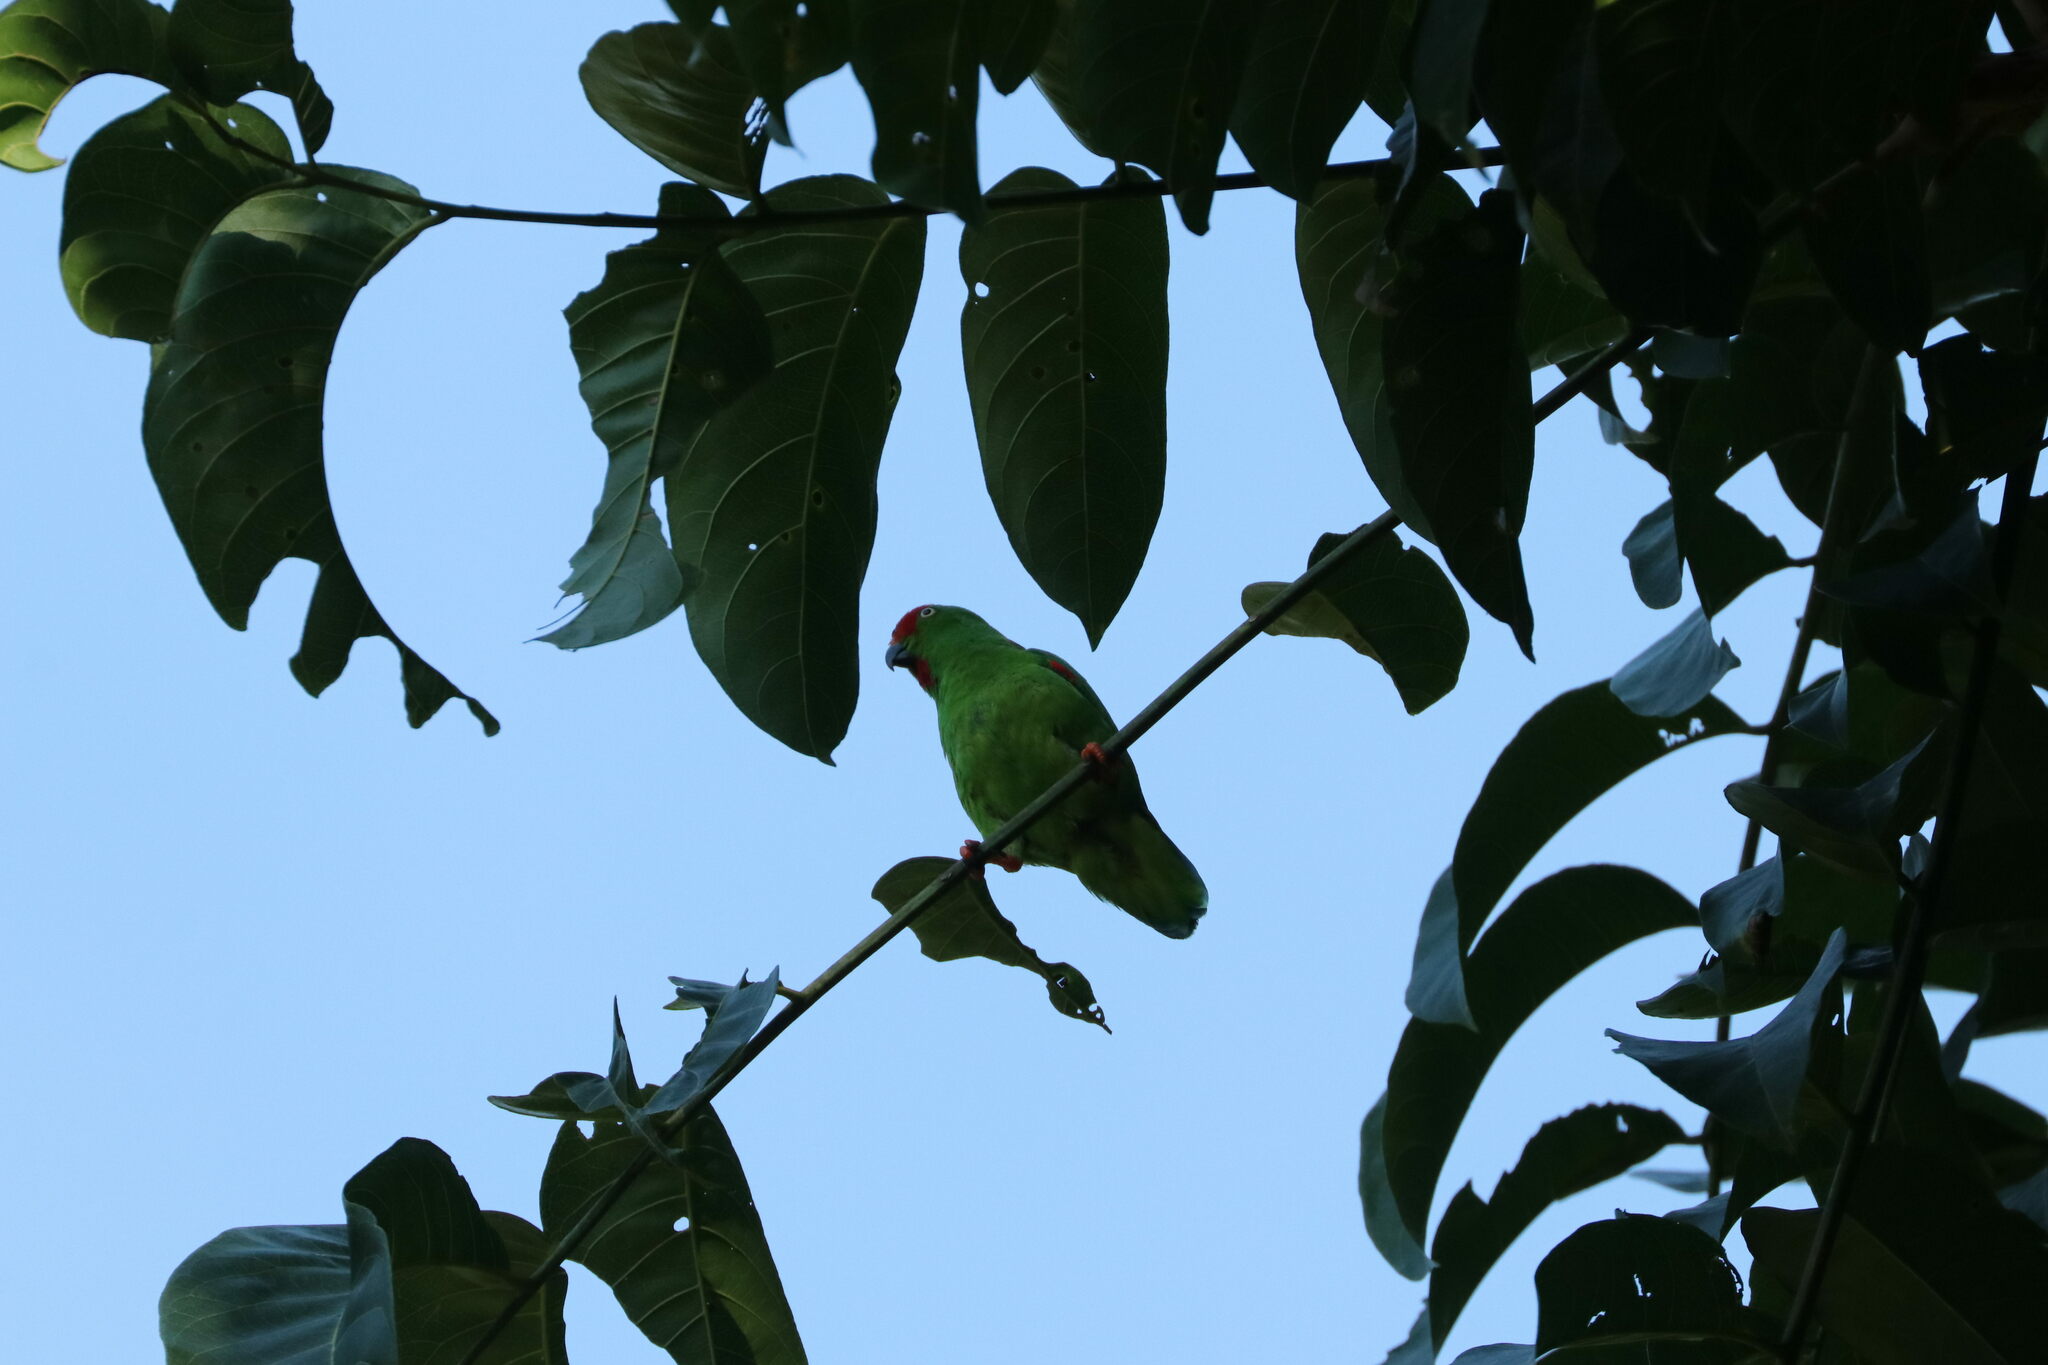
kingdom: Animalia
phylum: Chordata
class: Aves
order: Psittaciformes
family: Psittacidae
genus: Loriculus
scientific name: Loriculus stigmatus
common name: Great hanging parrot
